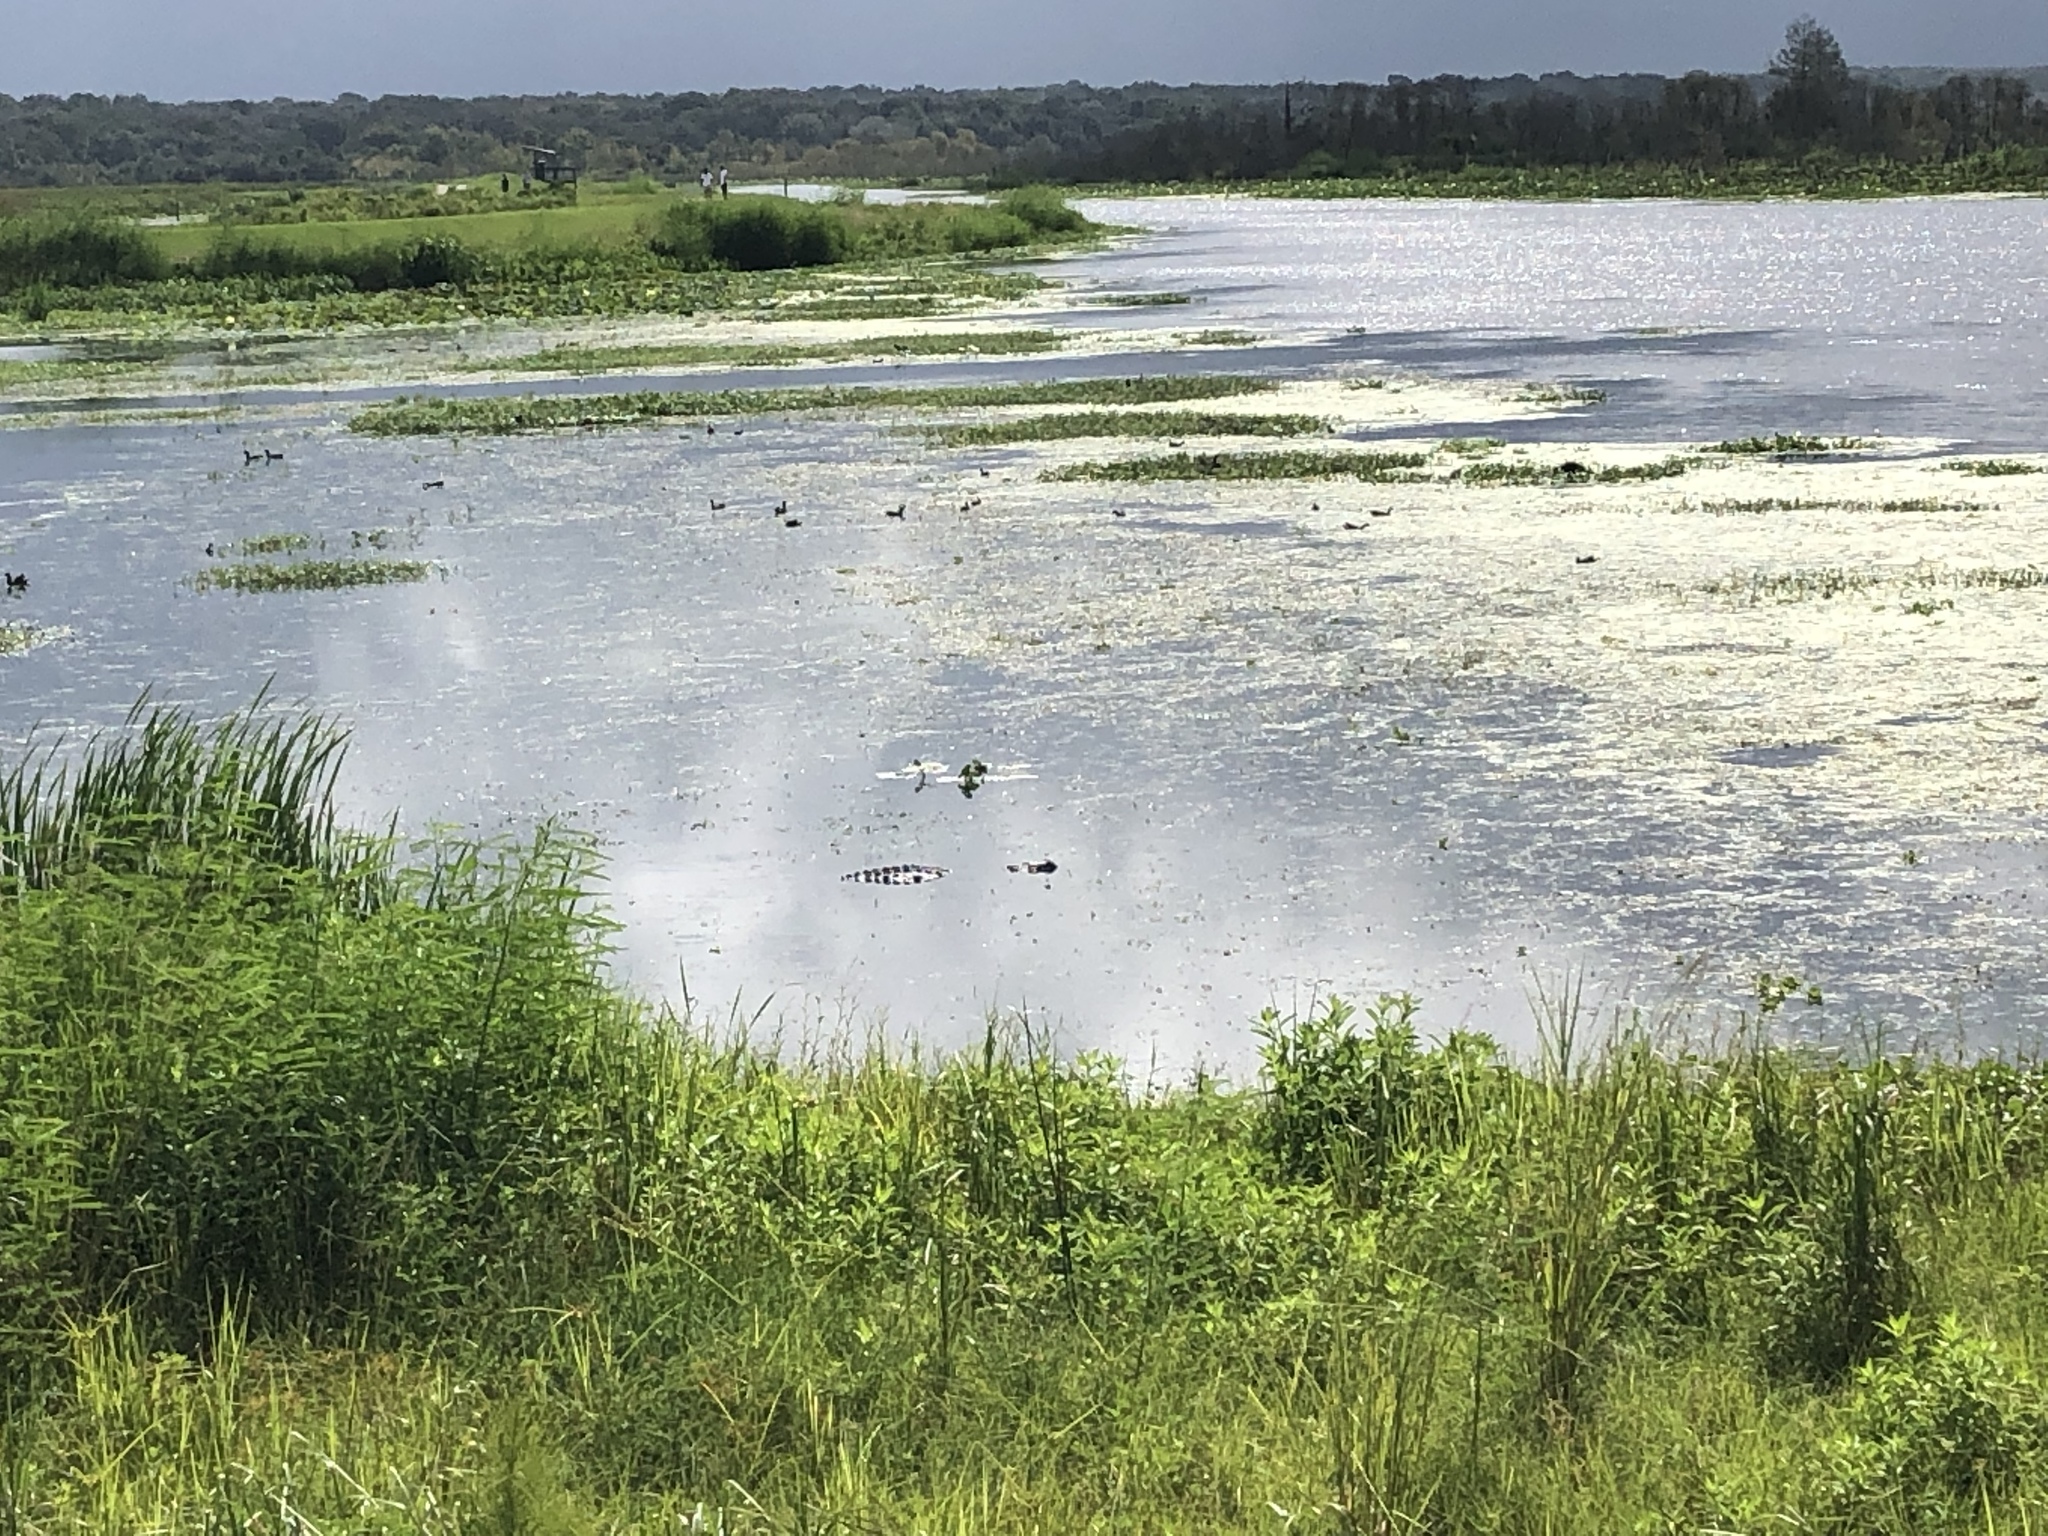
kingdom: Animalia
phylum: Chordata
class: Crocodylia
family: Alligatoridae
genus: Alligator
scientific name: Alligator mississippiensis
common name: American alligator
